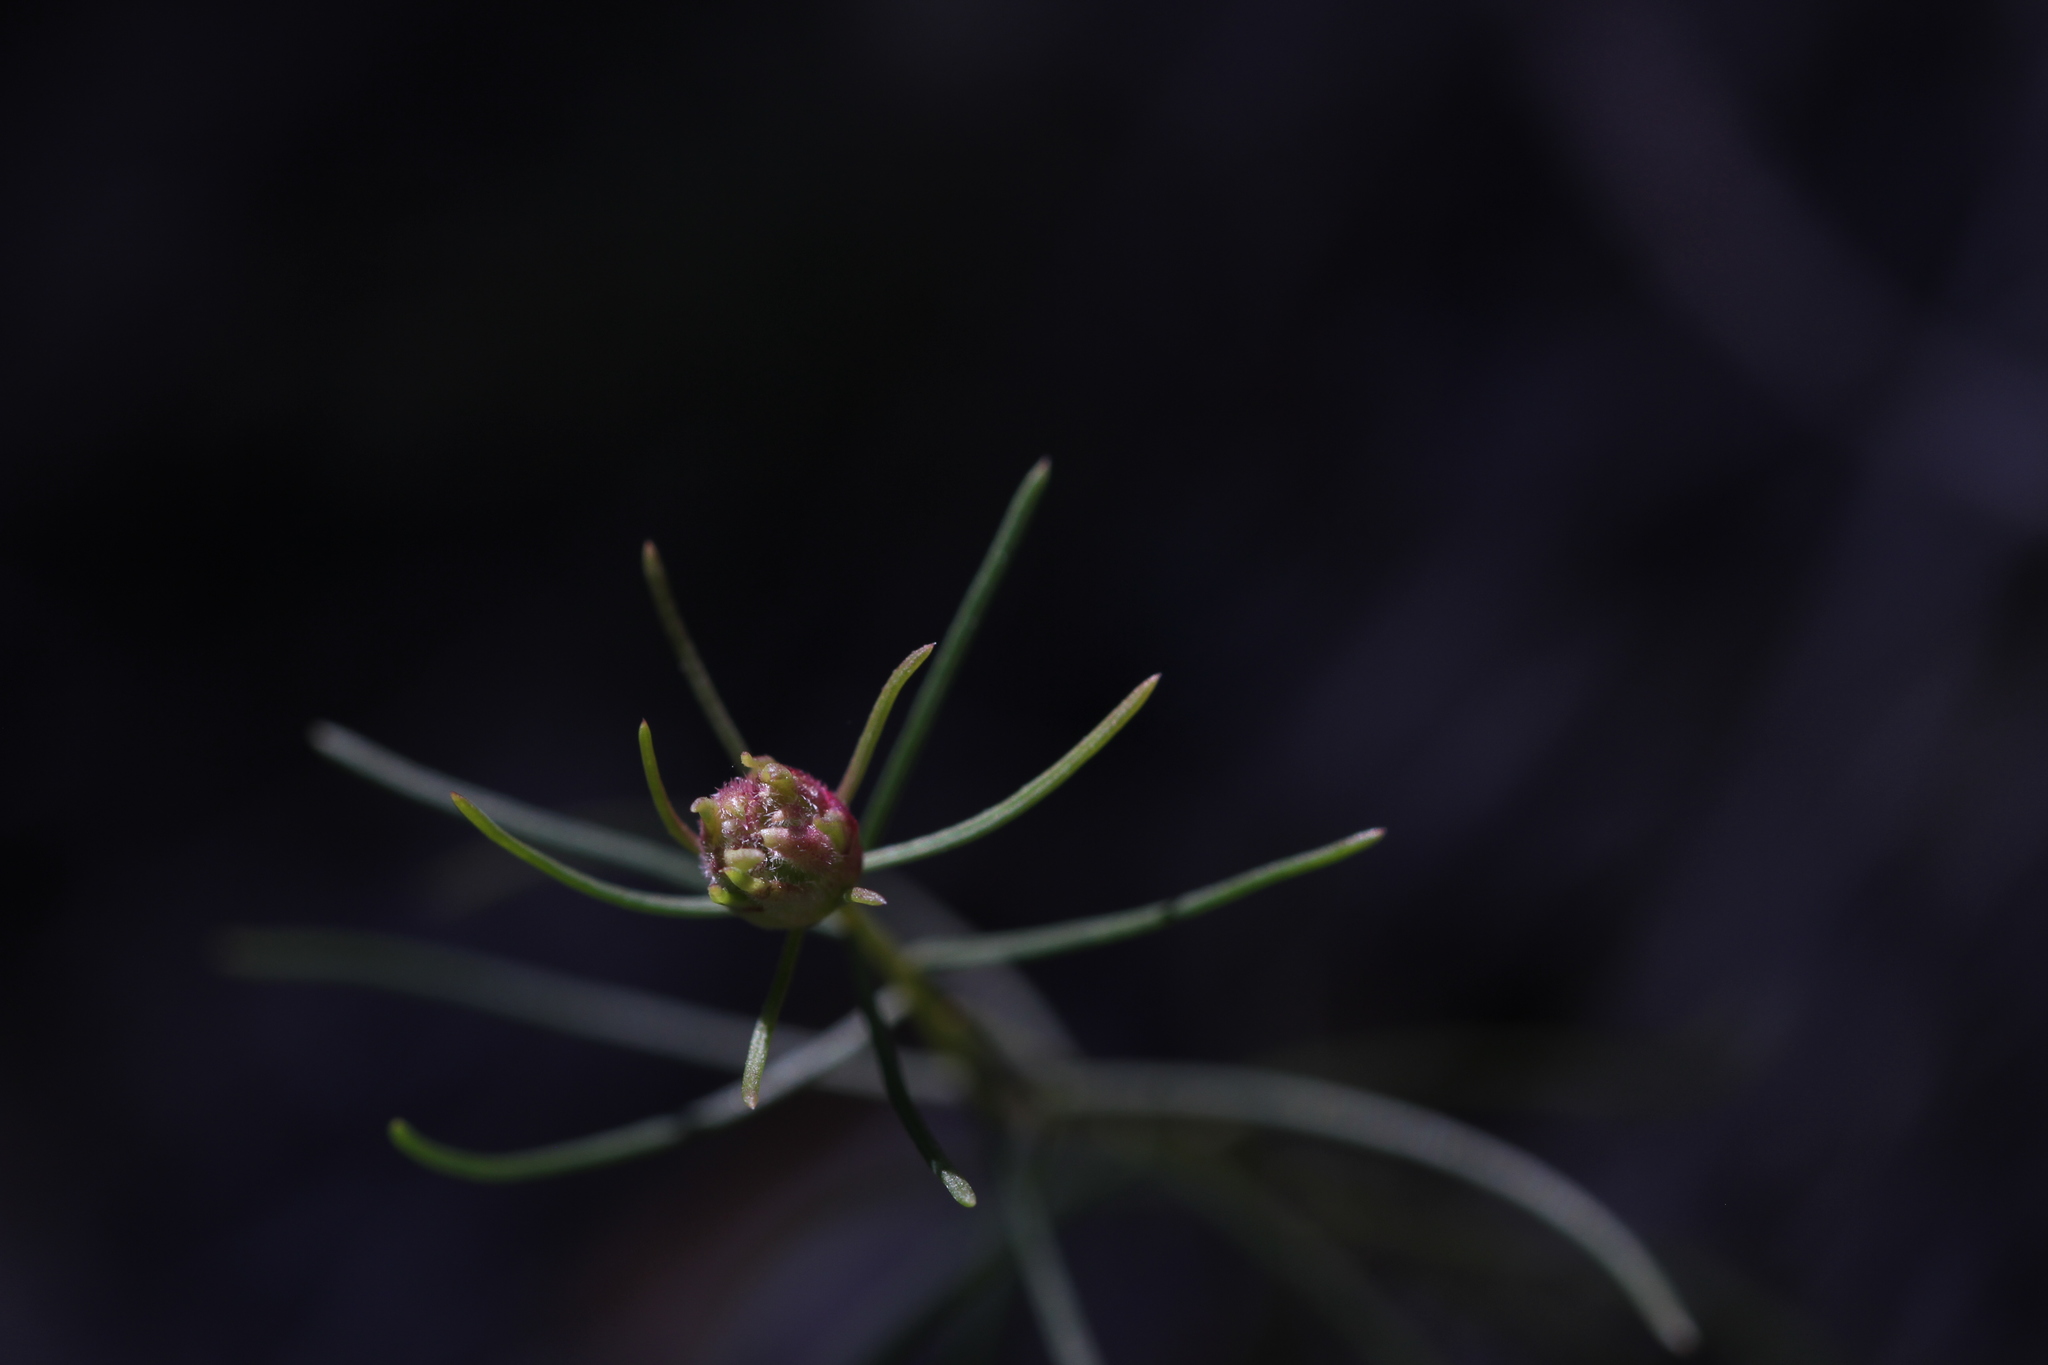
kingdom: Animalia
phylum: Arthropoda
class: Insecta
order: Diptera
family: Cecidomyiidae
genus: Rhopalomyia
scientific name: Rhopalomyia erigerontis
